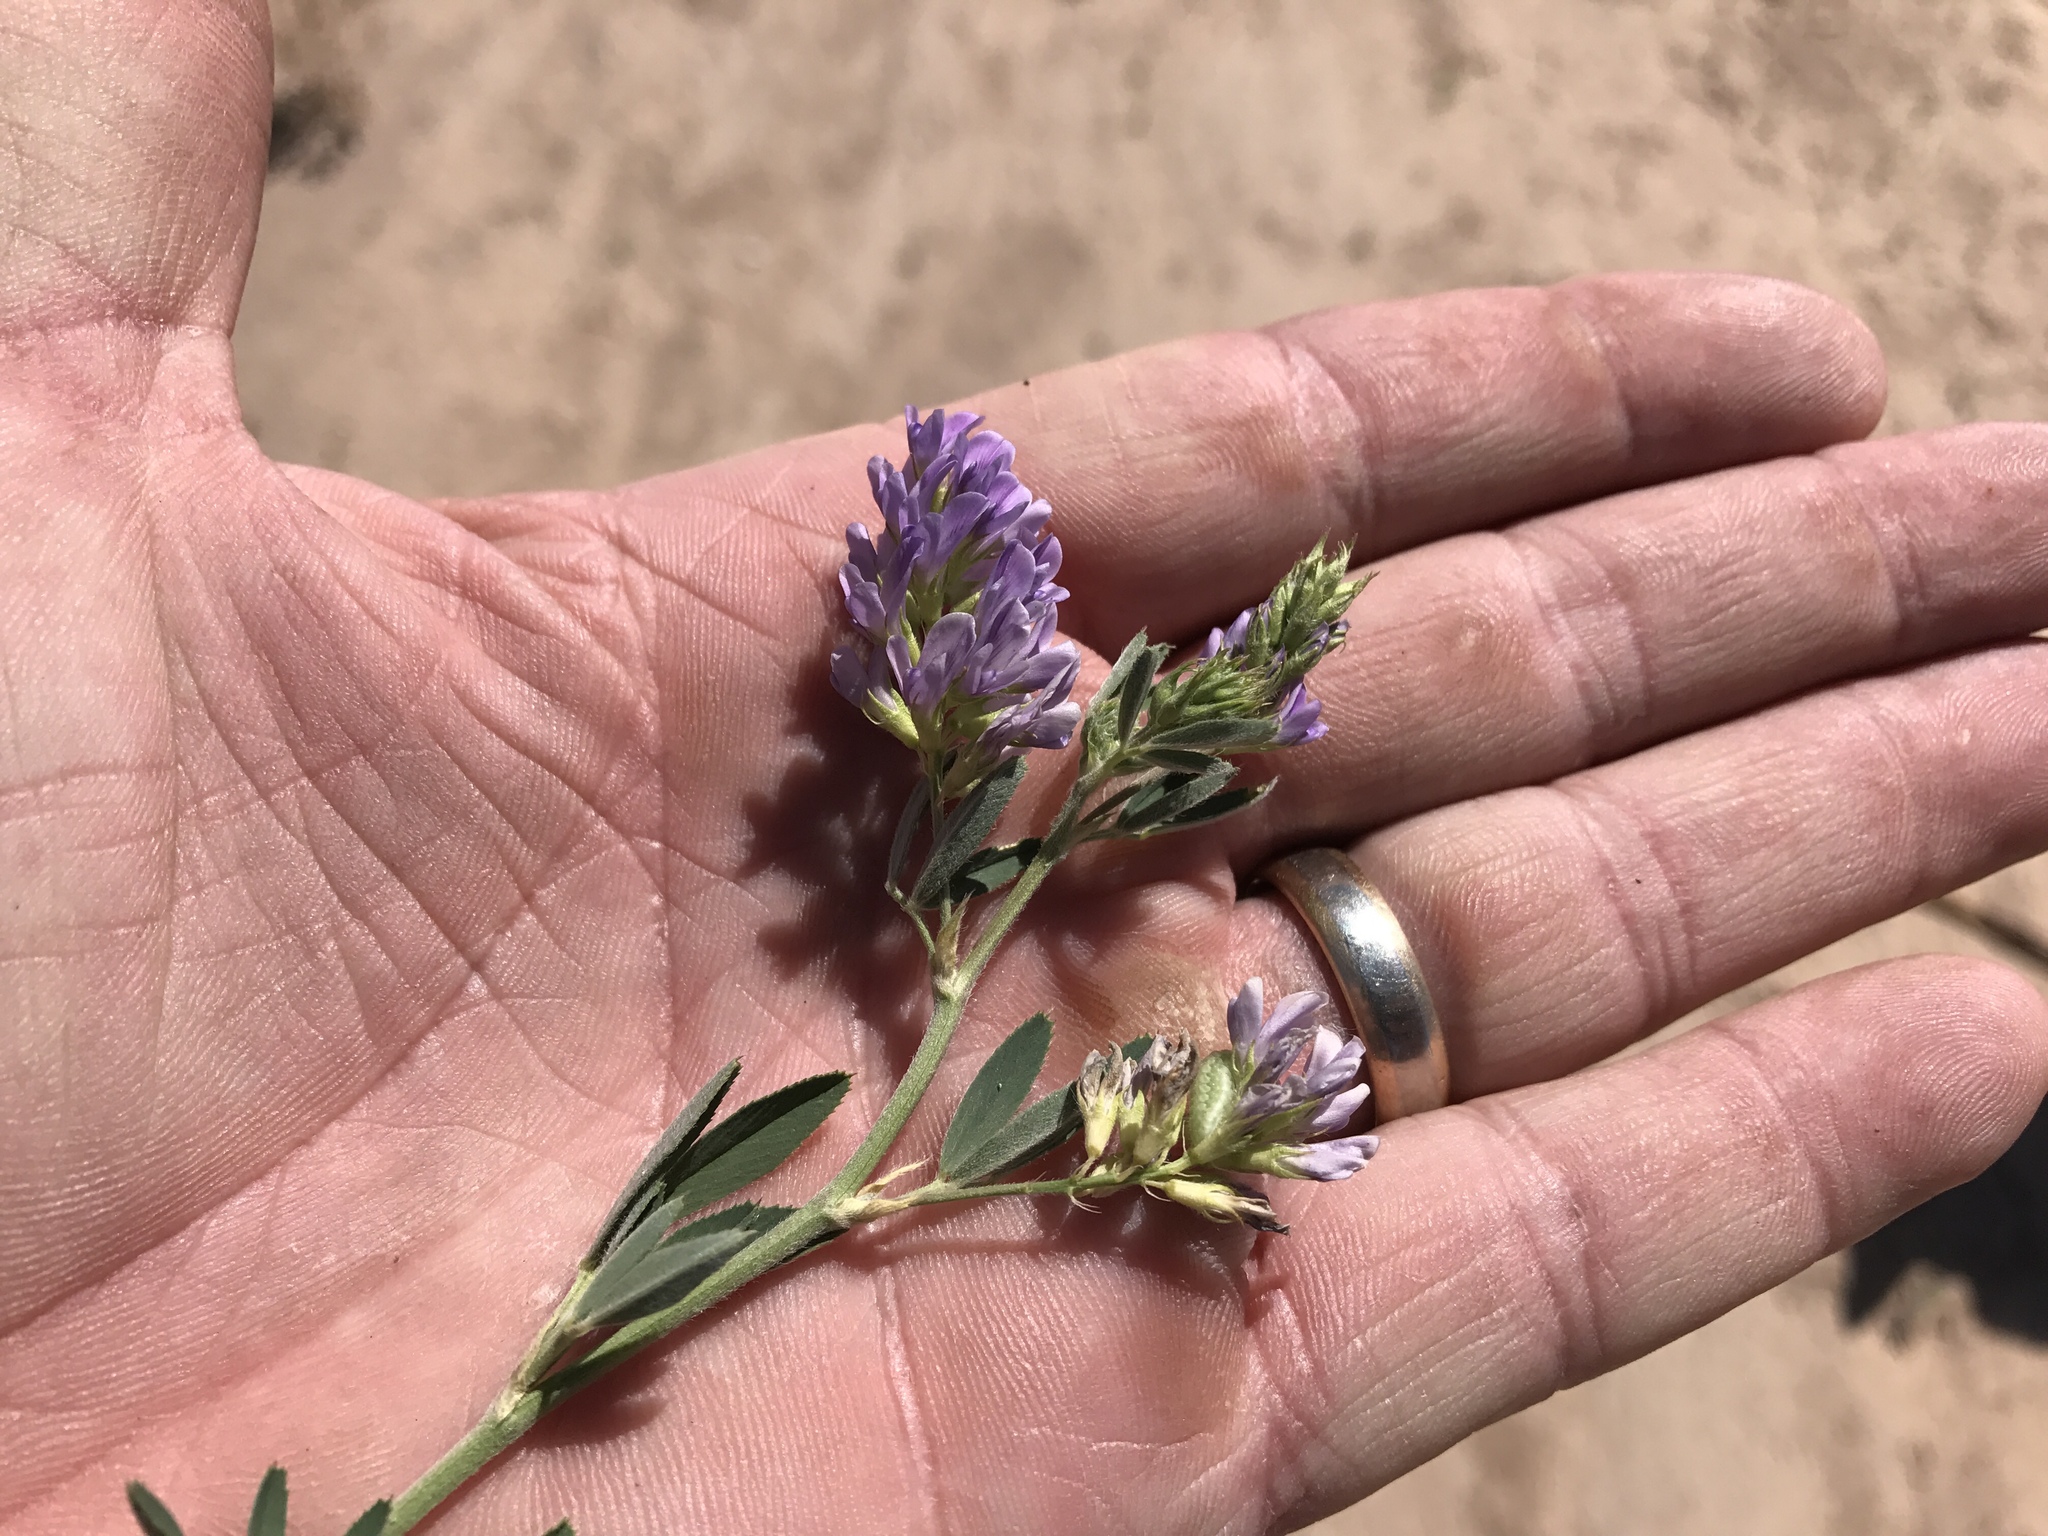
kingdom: Plantae
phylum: Tracheophyta
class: Magnoliopsida
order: Fabales
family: Fabaceae
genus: Medicago
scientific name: Medicago sativa
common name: Alfalfa
